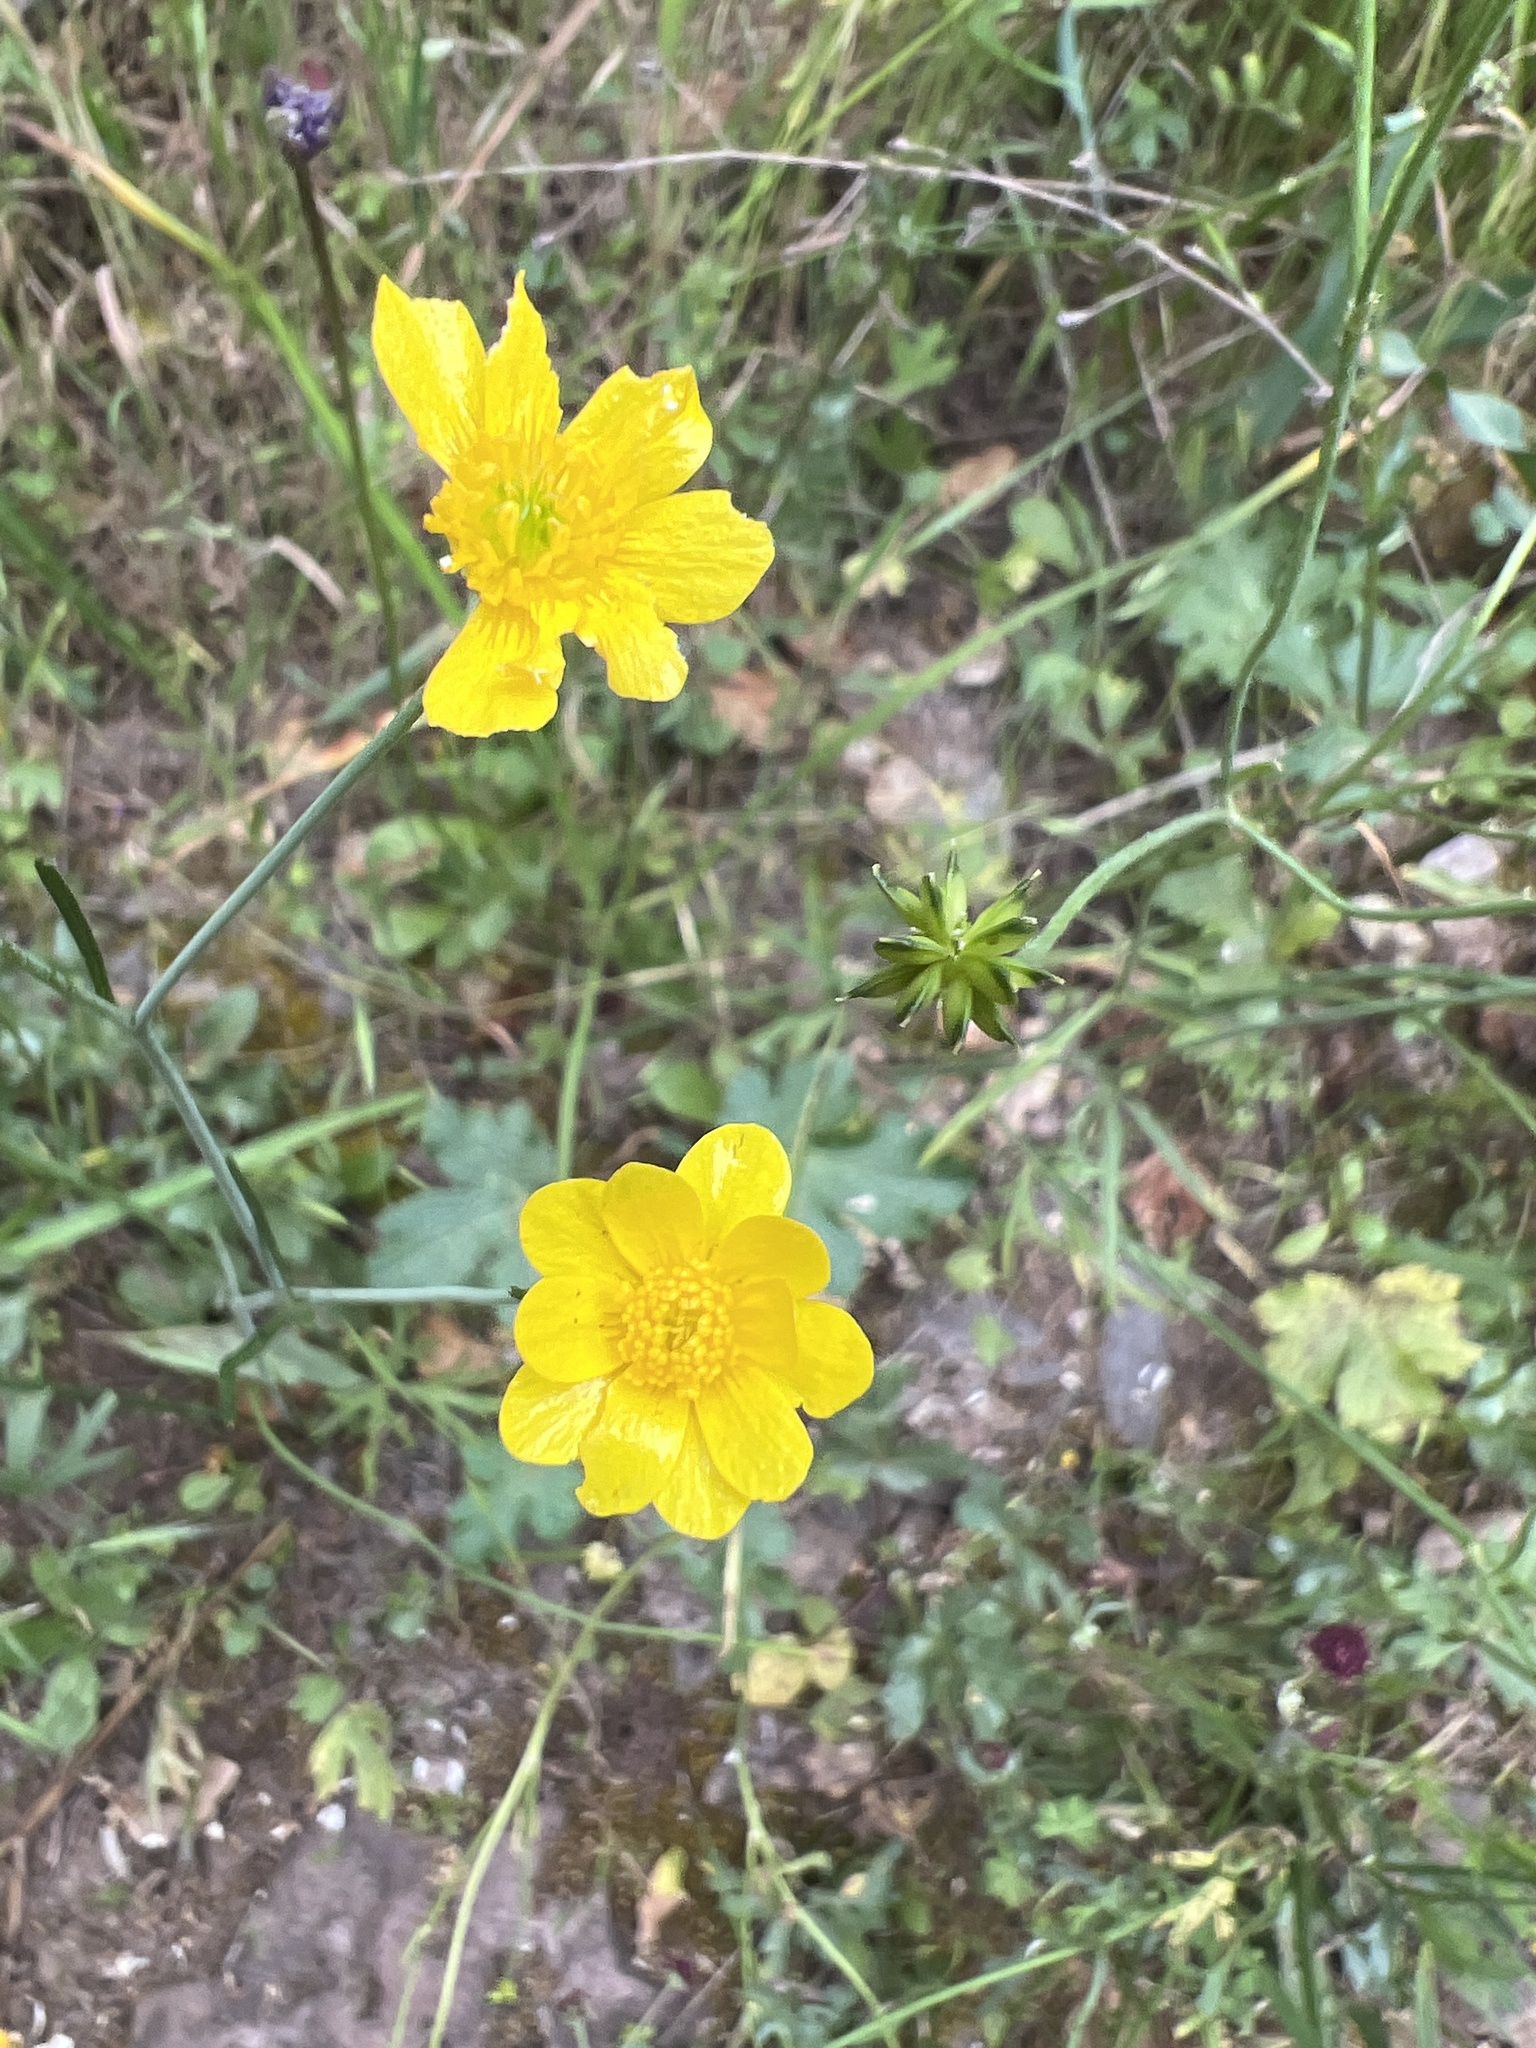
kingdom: Plantae
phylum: Tracheophyta
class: Magnoliopsida
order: Ranunculales
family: Ranunculaceae
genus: Ranunculus
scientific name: Ranunculus californicus
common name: California buttercup
